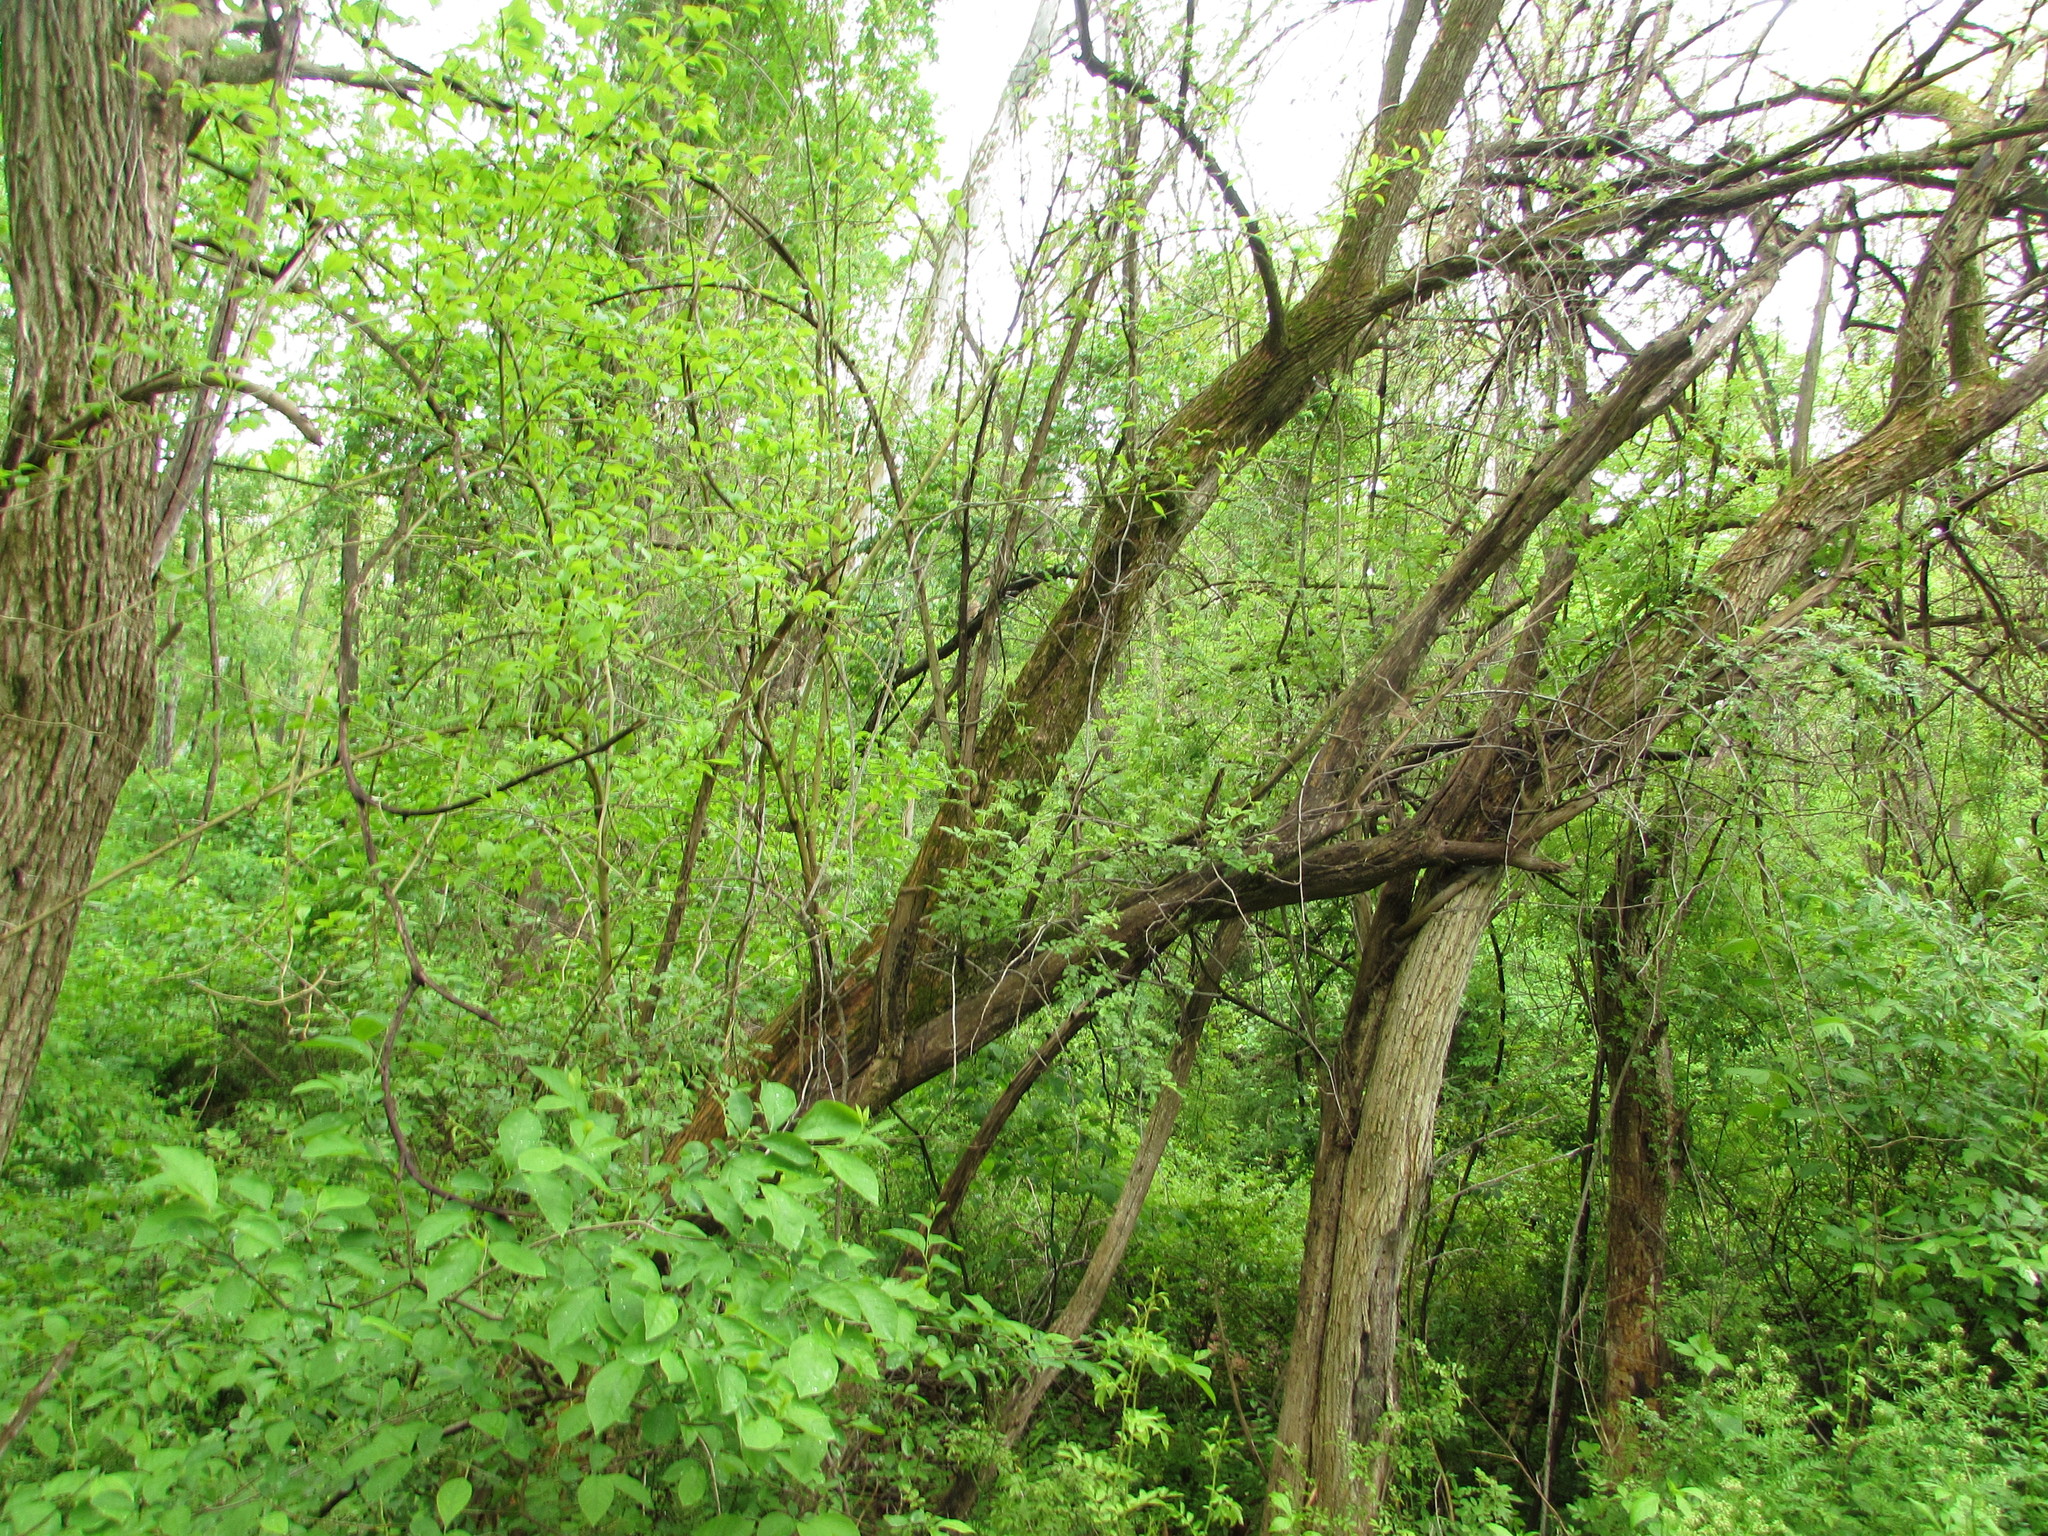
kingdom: Plantae
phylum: Tracheophyta
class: Magnoliopsida
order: Rosales
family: Moraceae
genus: Maclura
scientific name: Maclura pomifera
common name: Osage-orange
